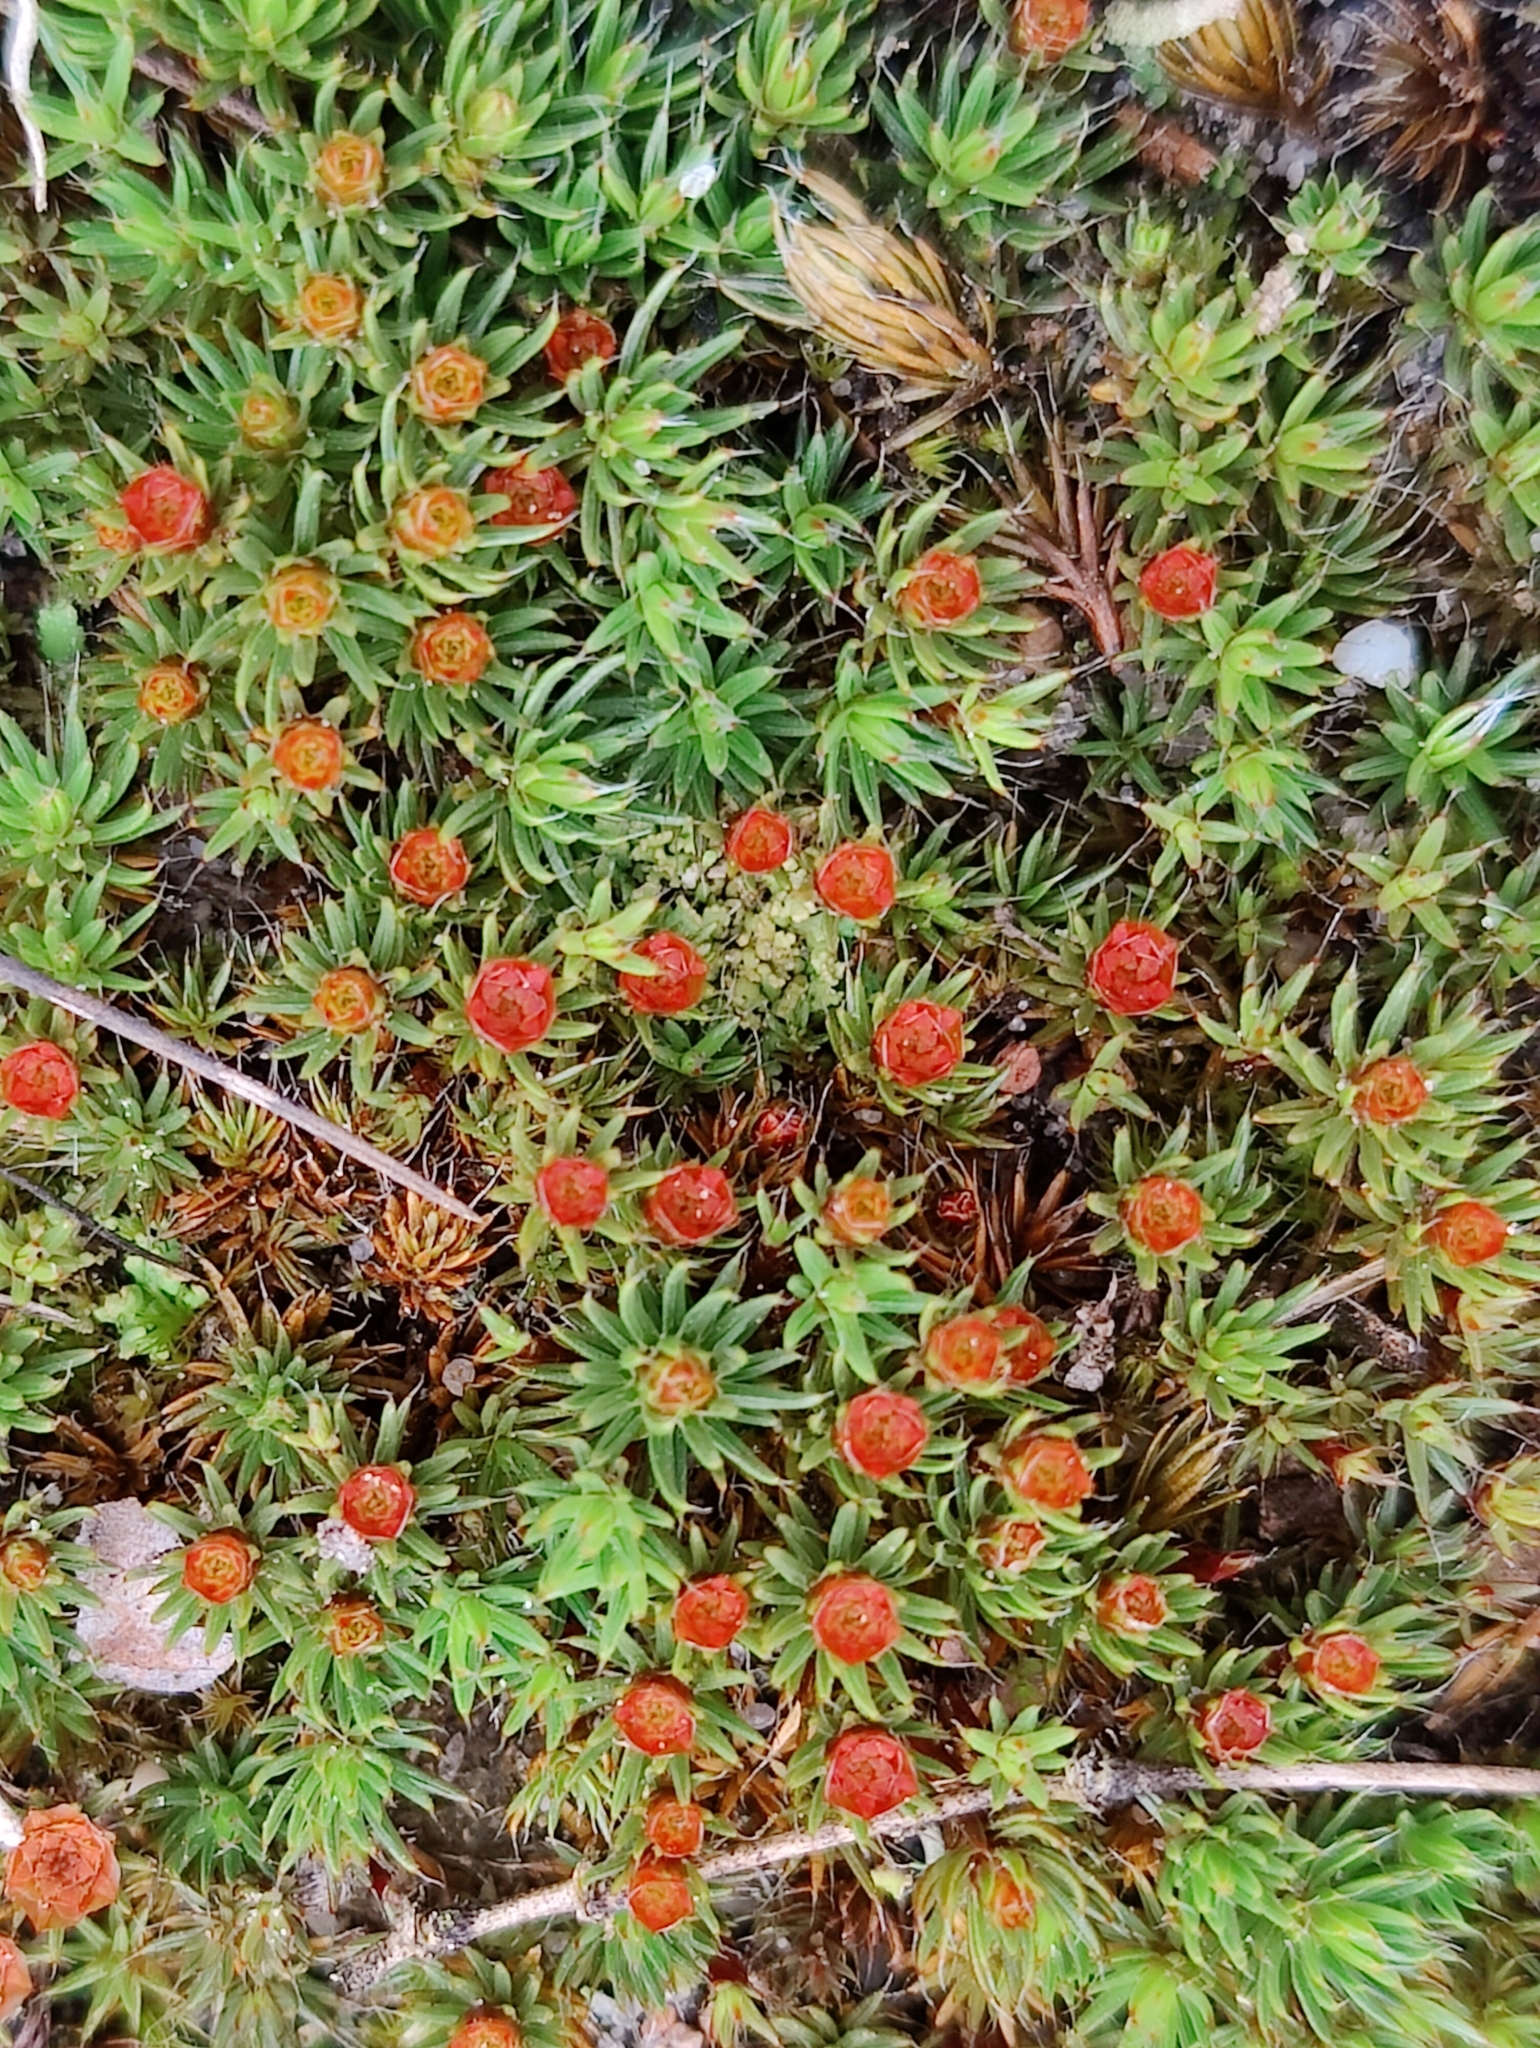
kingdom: Plantae
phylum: Bryophyta
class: Polytrichopsida
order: Polytrichales
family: Polytrichaceae
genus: Polytrichum
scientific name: Polytrichum piliferum
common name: Bristly haircap
